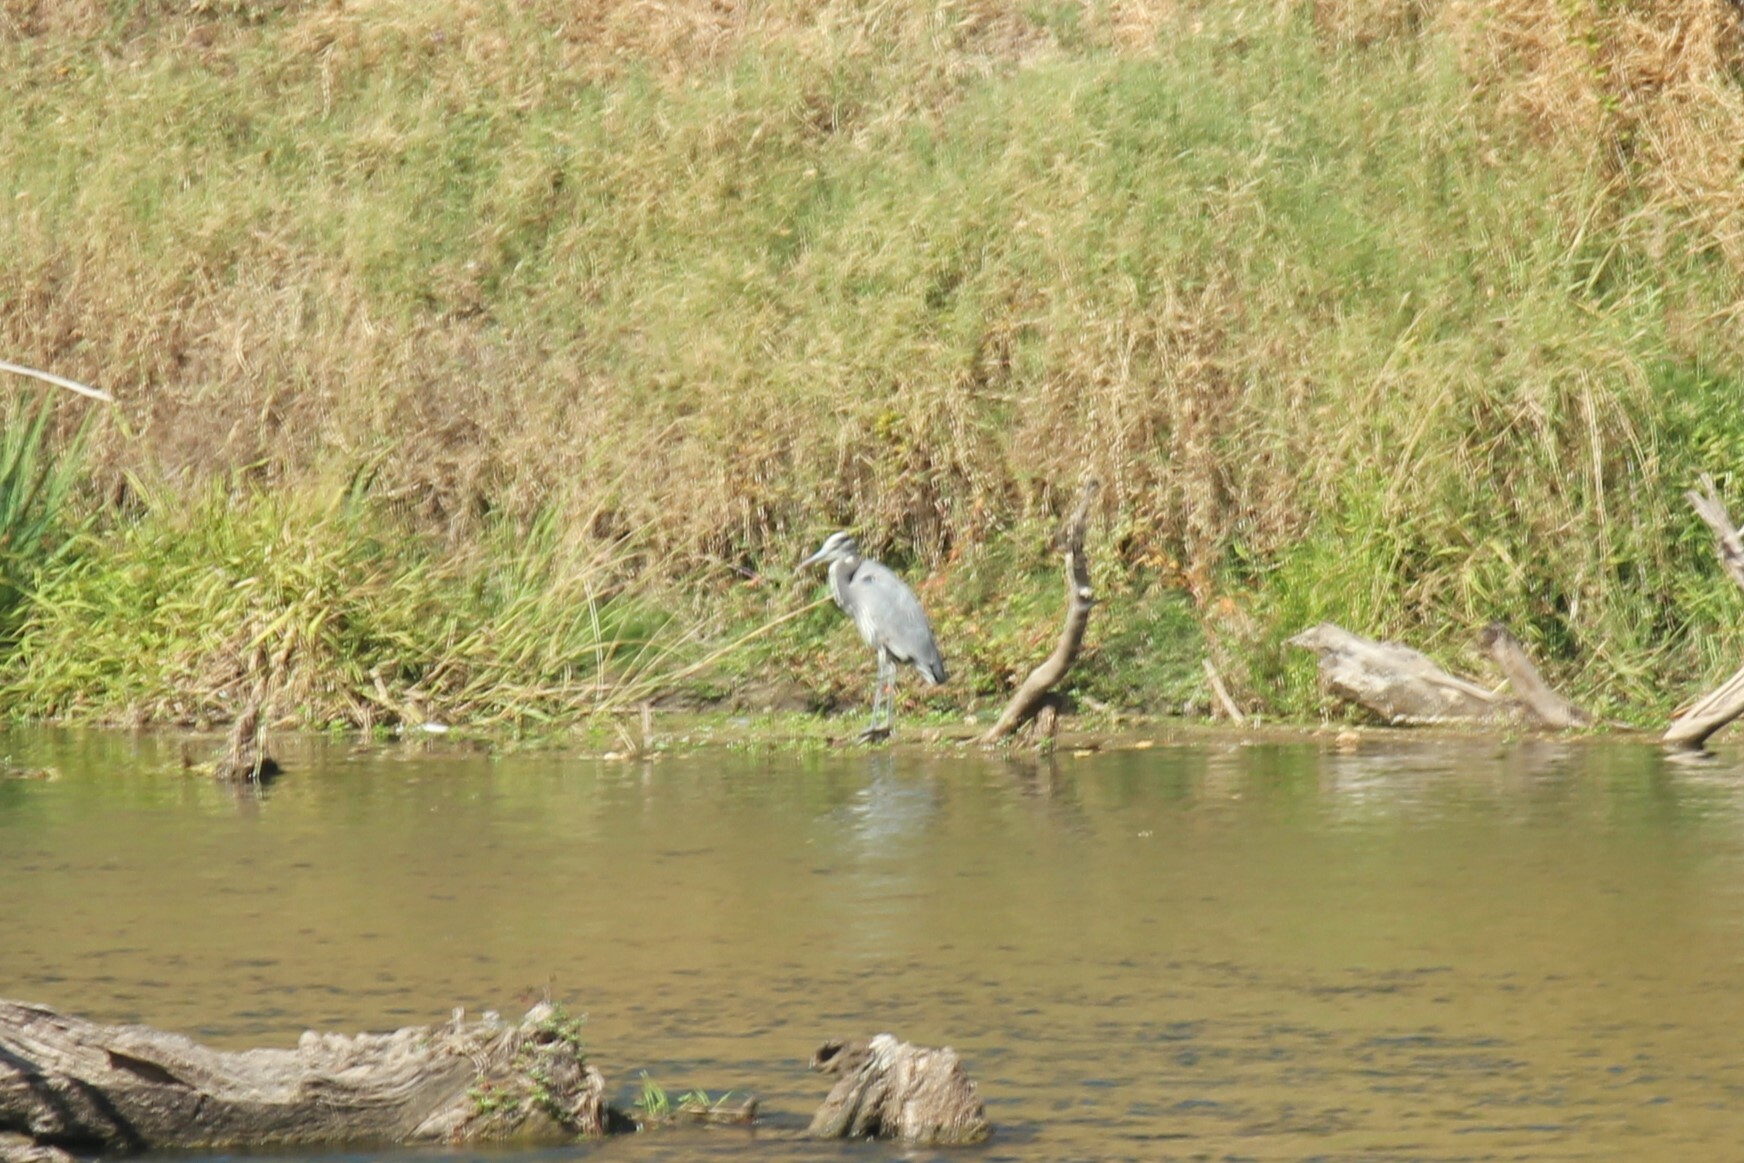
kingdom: Animalia
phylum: Chordata
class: Aves
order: Pelecaniformes
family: Ardeidae
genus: Ardea
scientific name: Ardea herodias
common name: Great blue heron
